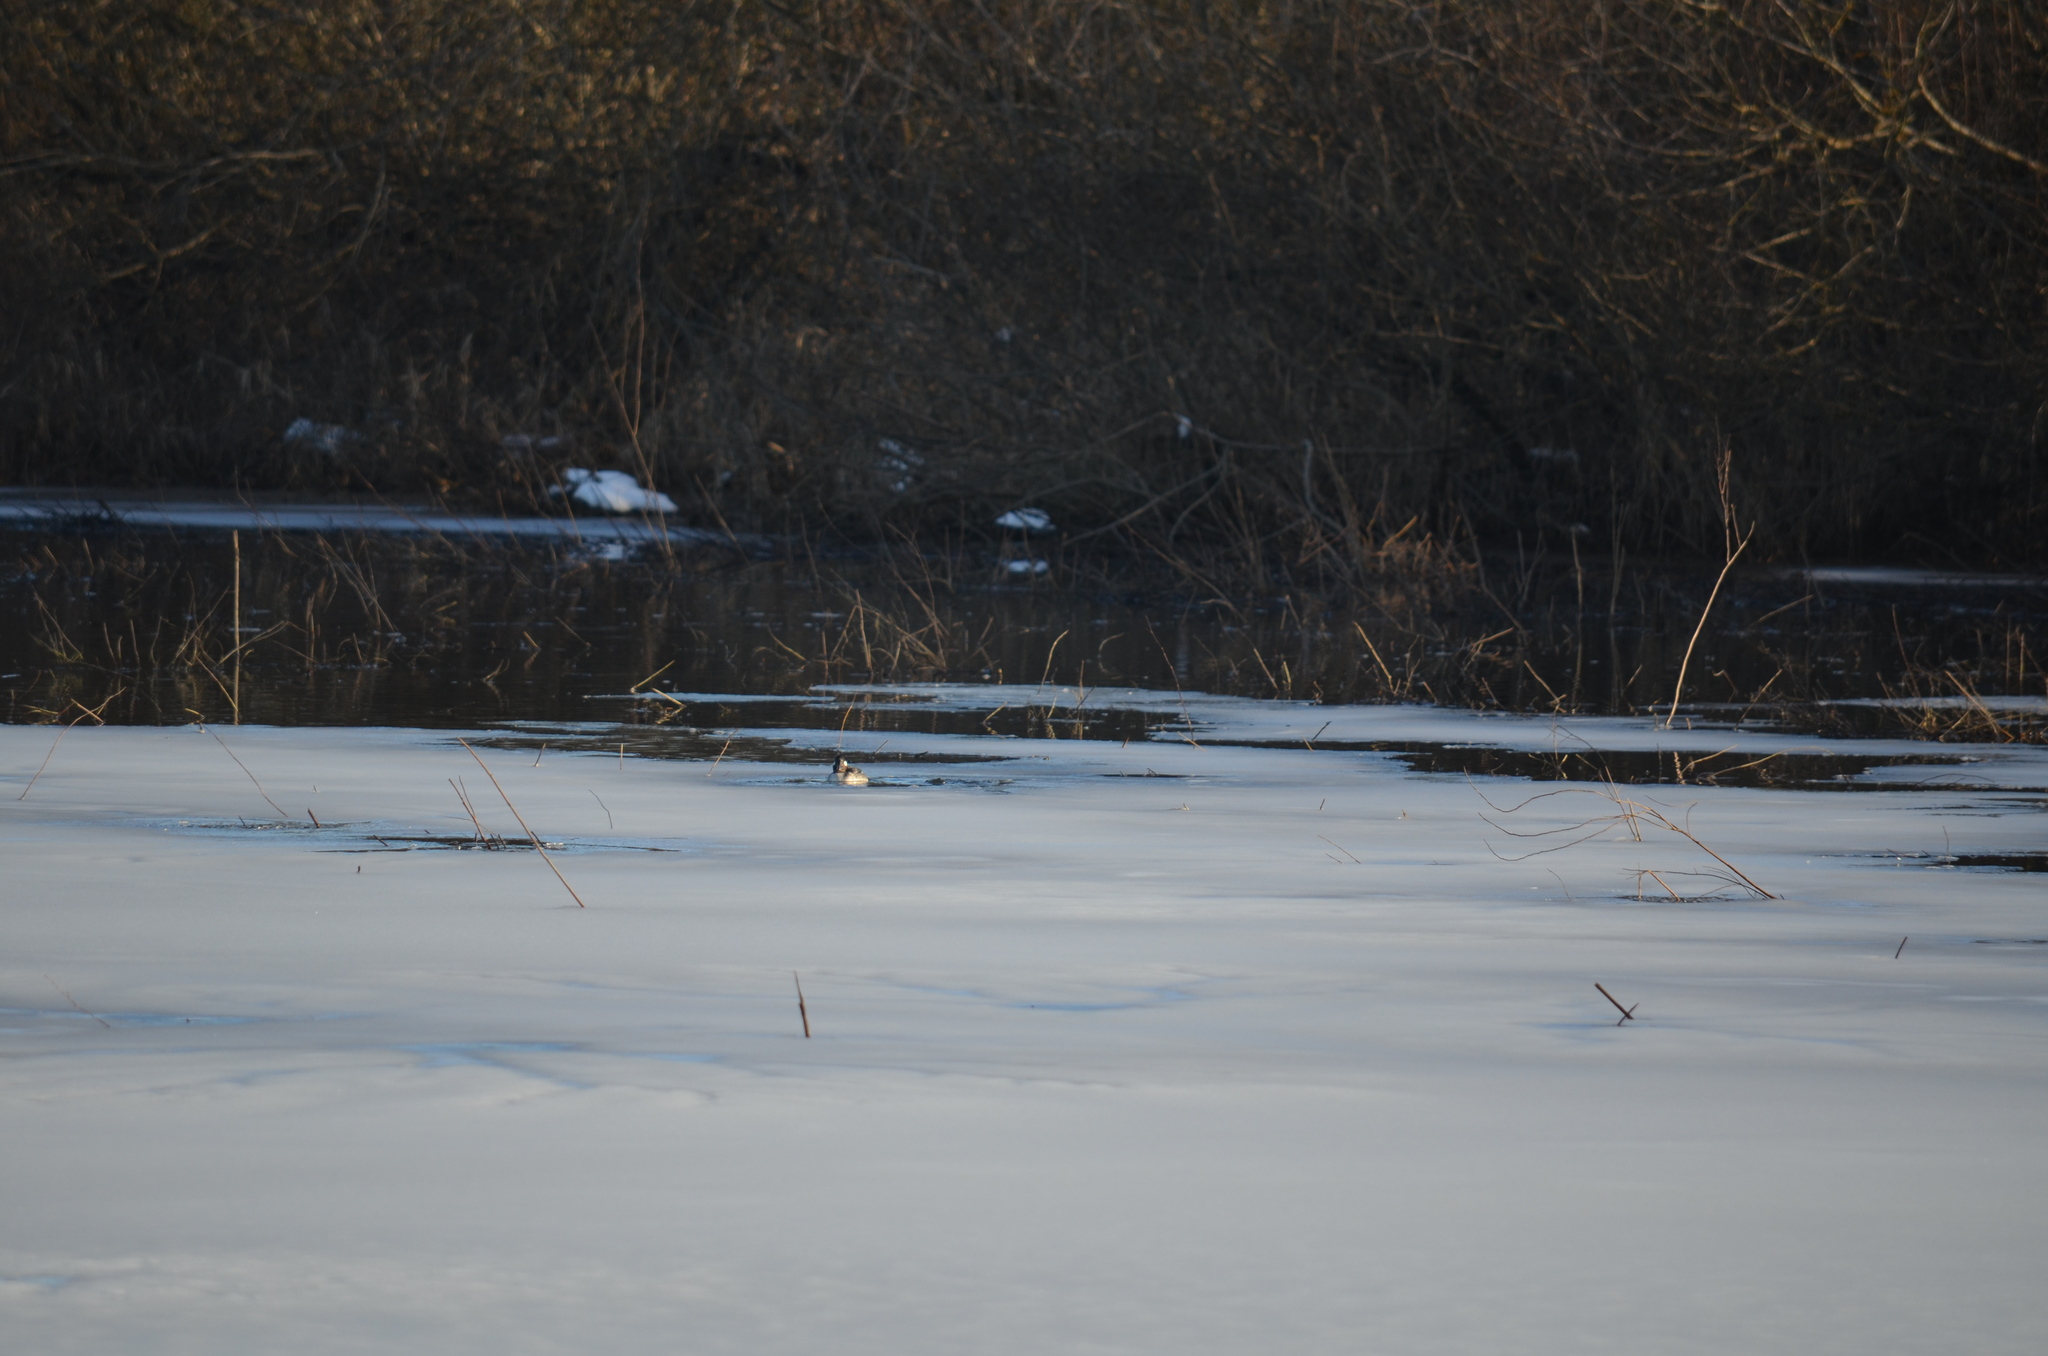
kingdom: Animalia
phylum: Chordata
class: Aves
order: Anseriformes
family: Anatidae
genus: Bucephala
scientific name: Bucephala albeola
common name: Bufflehead
